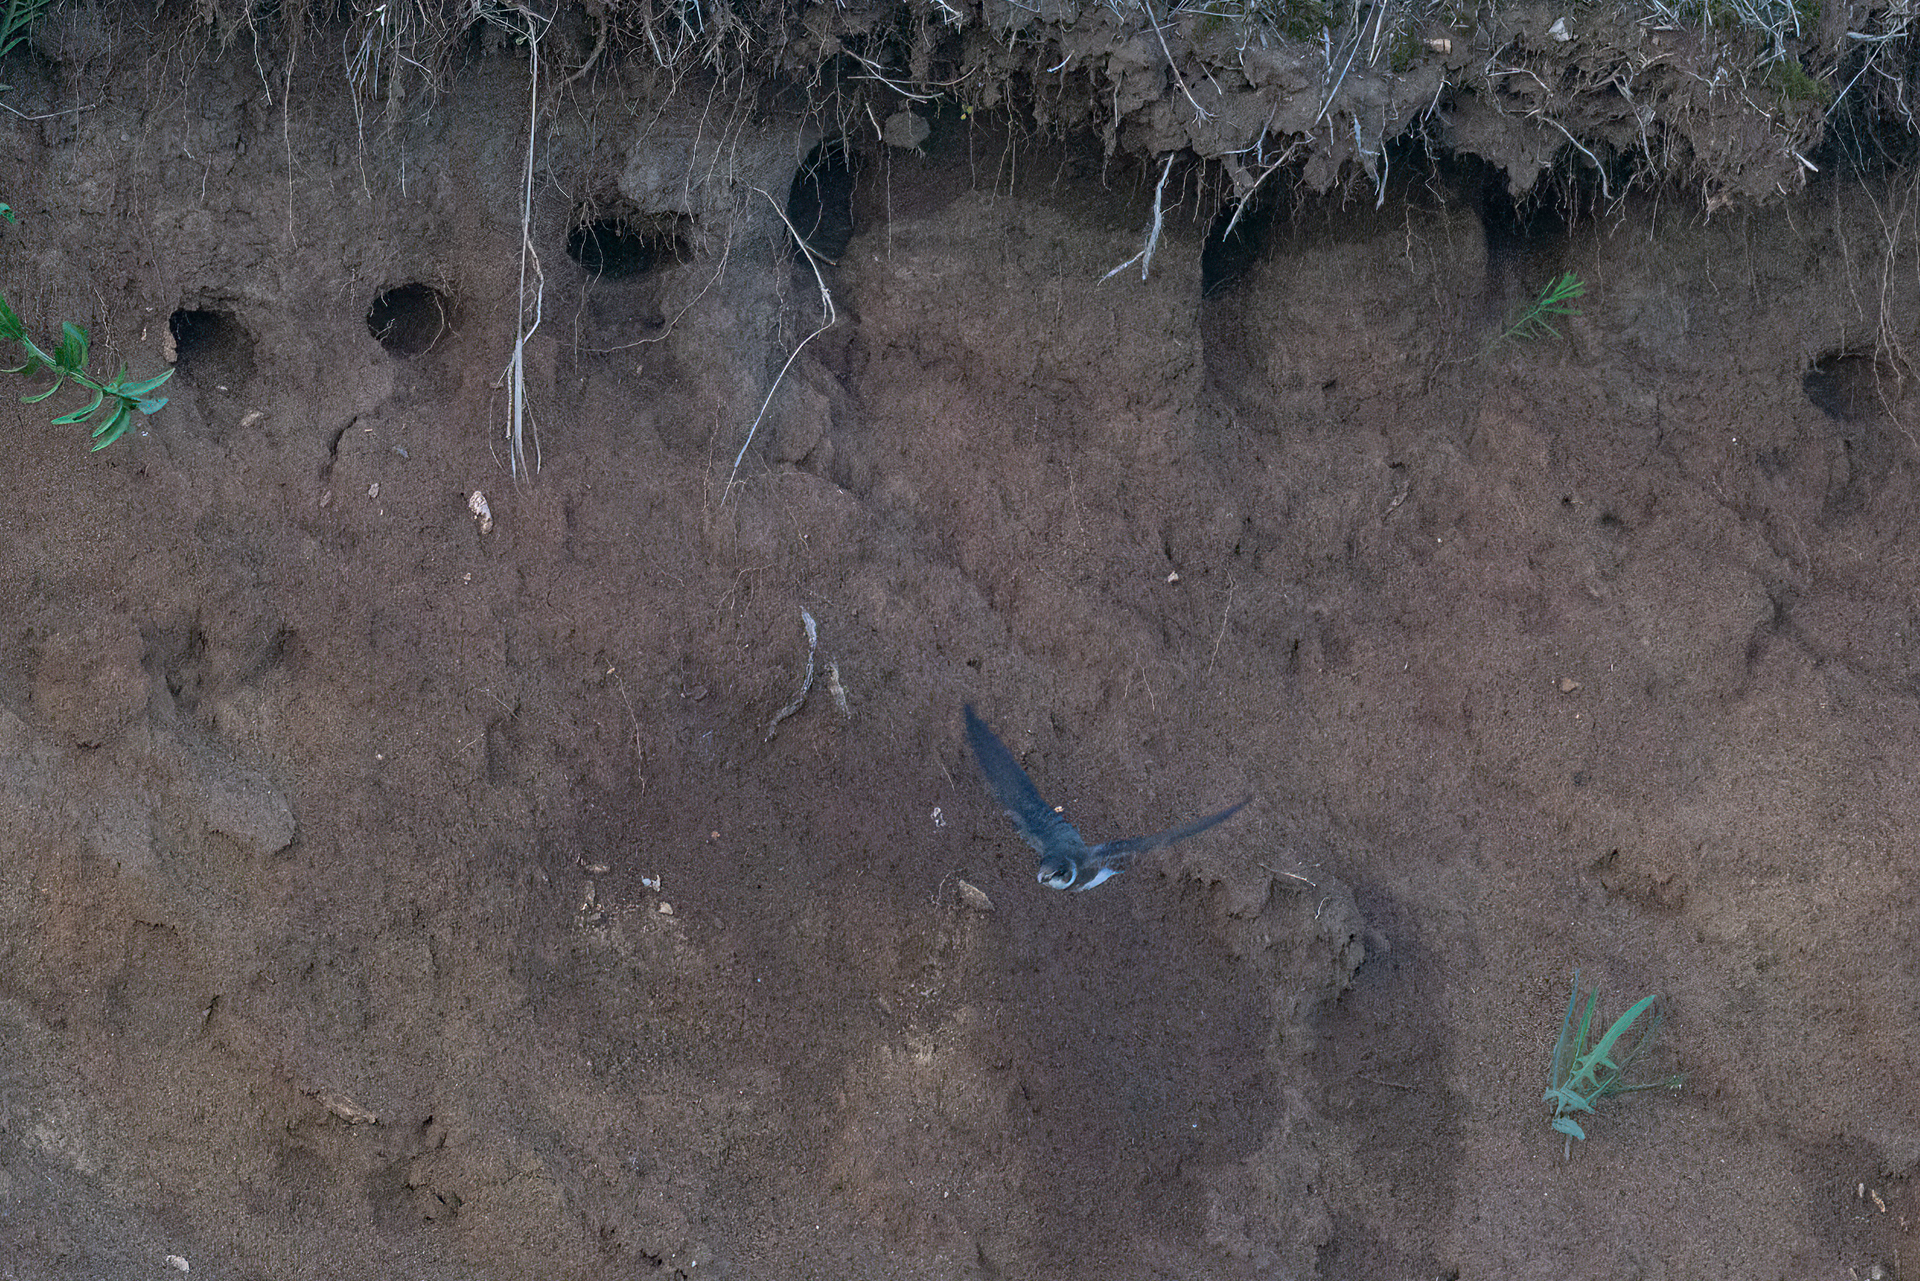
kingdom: Animalia
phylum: Chordata
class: Aves
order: Passeriformes
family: Hirundinidae
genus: Riparia
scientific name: Riparia riparia
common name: Sand martin
